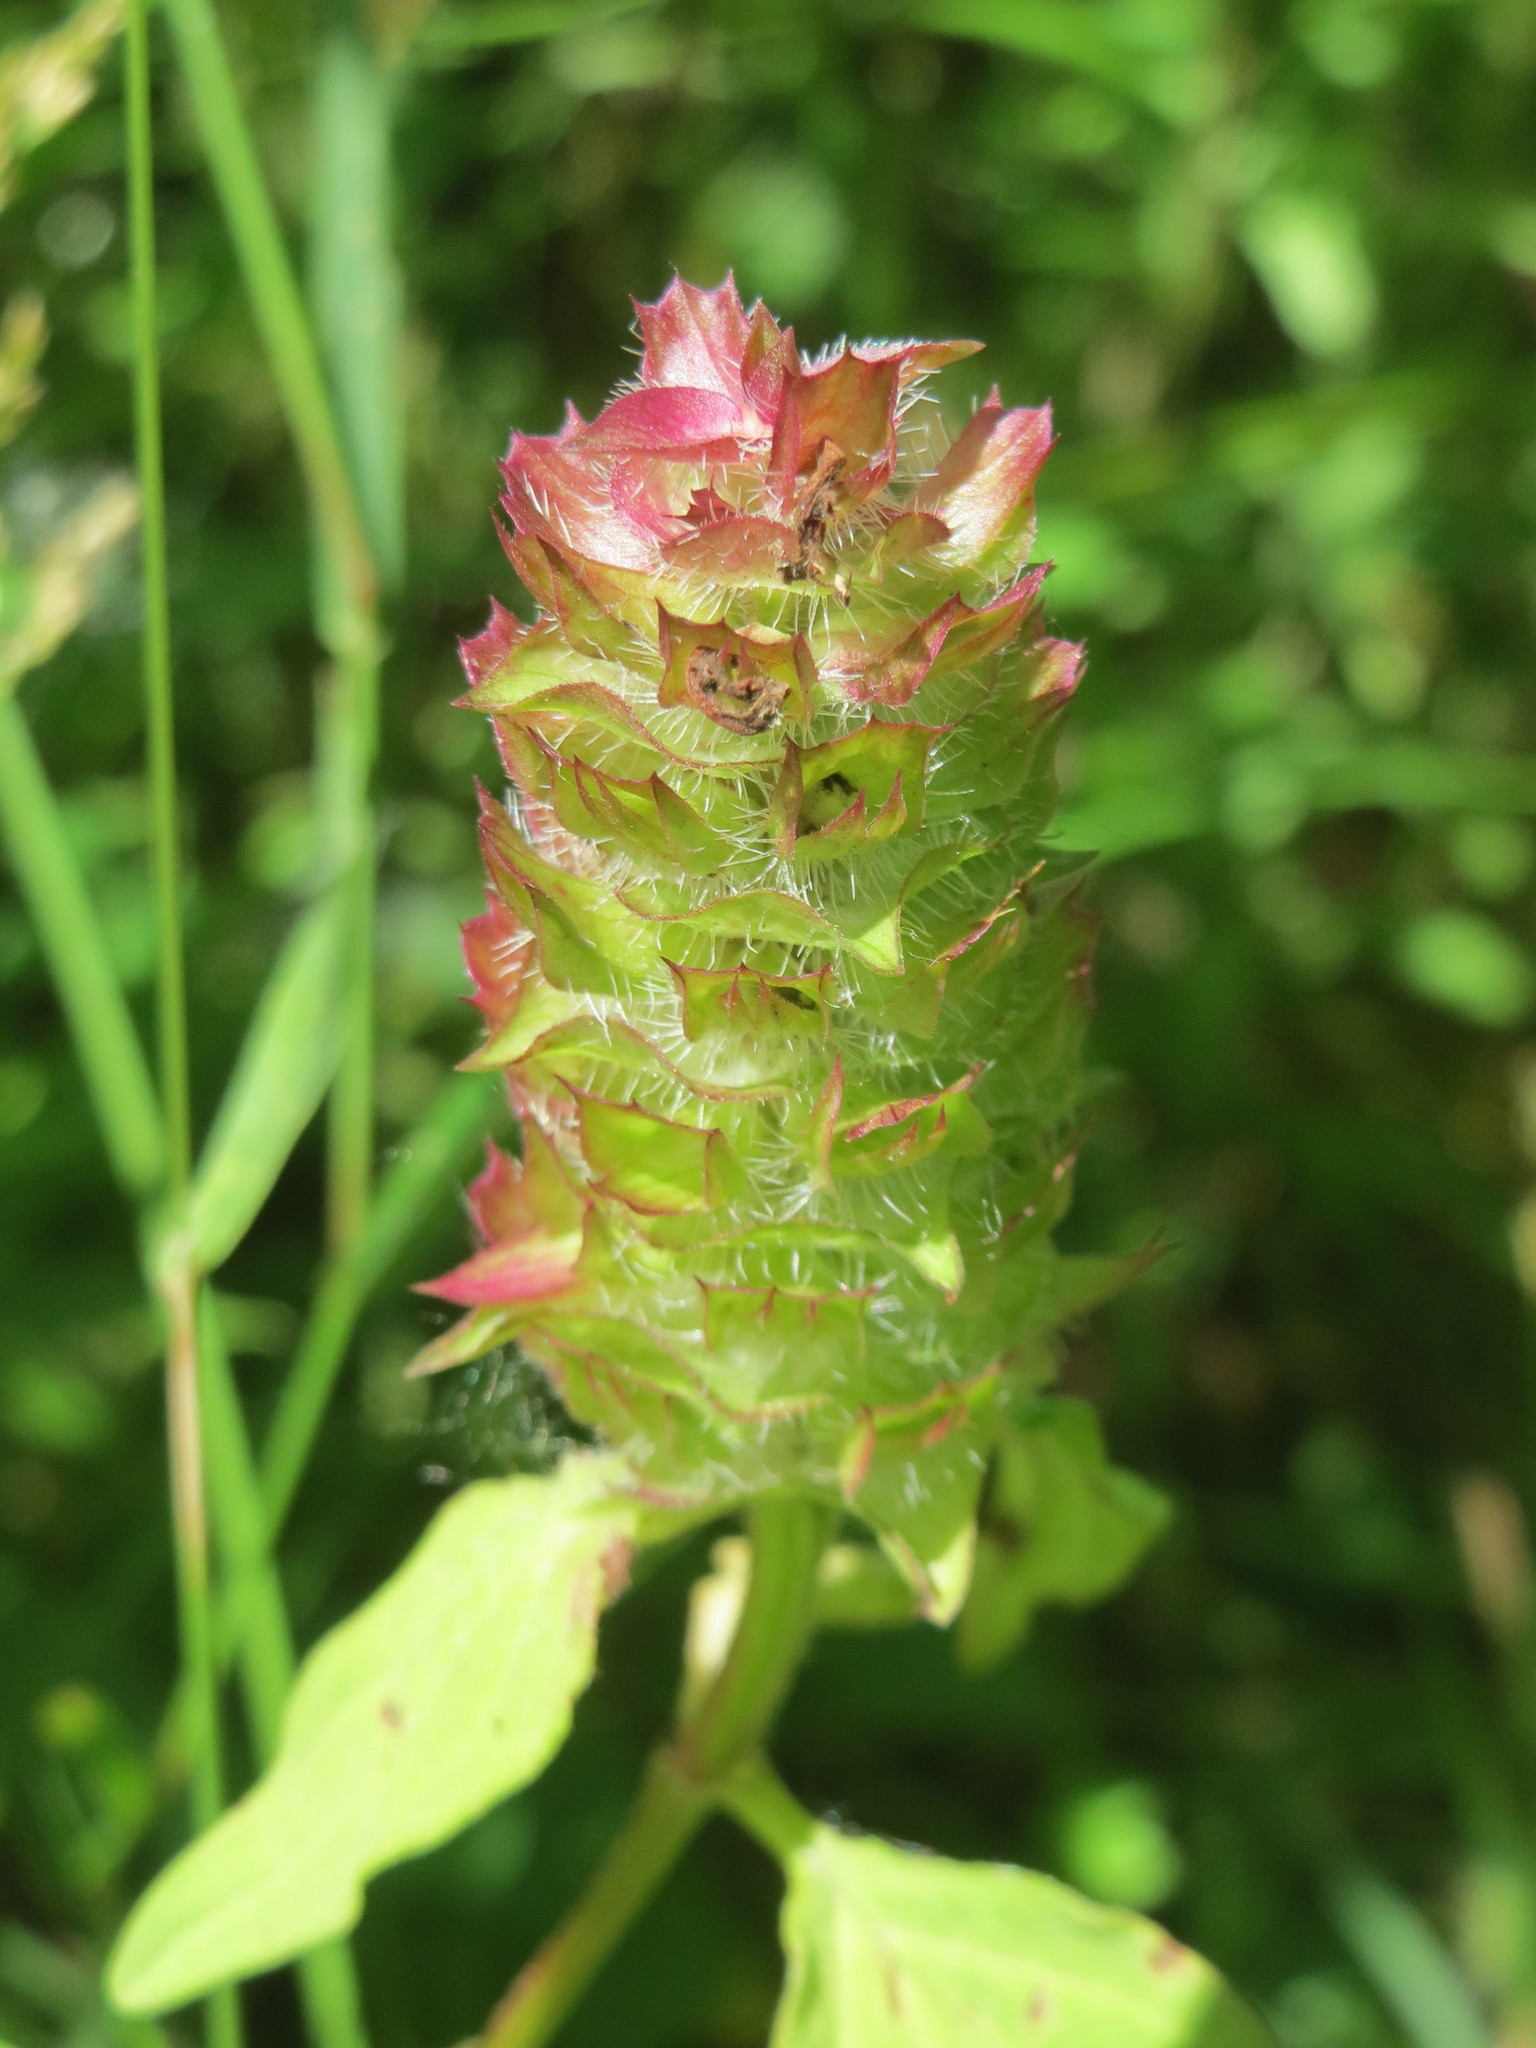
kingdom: Plantae
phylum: Tracheophyta
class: Magnoliopsida
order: Lamiales
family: Lamiaceae
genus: Prunella
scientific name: Prunella vulgaris
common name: Heal-all
